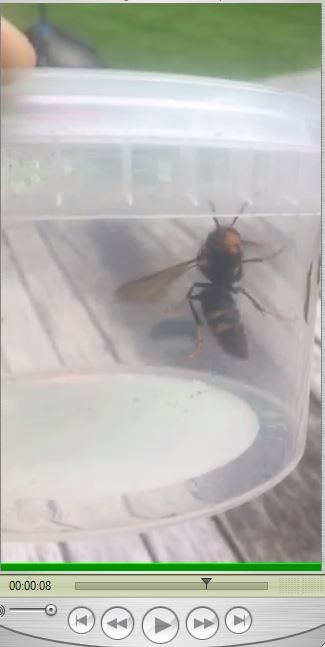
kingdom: Animalia
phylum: Arthropoda
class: Insecta
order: Hymenoptera
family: Vespidae
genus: Vespa
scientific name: Vespa velutina
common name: Asian hornet
